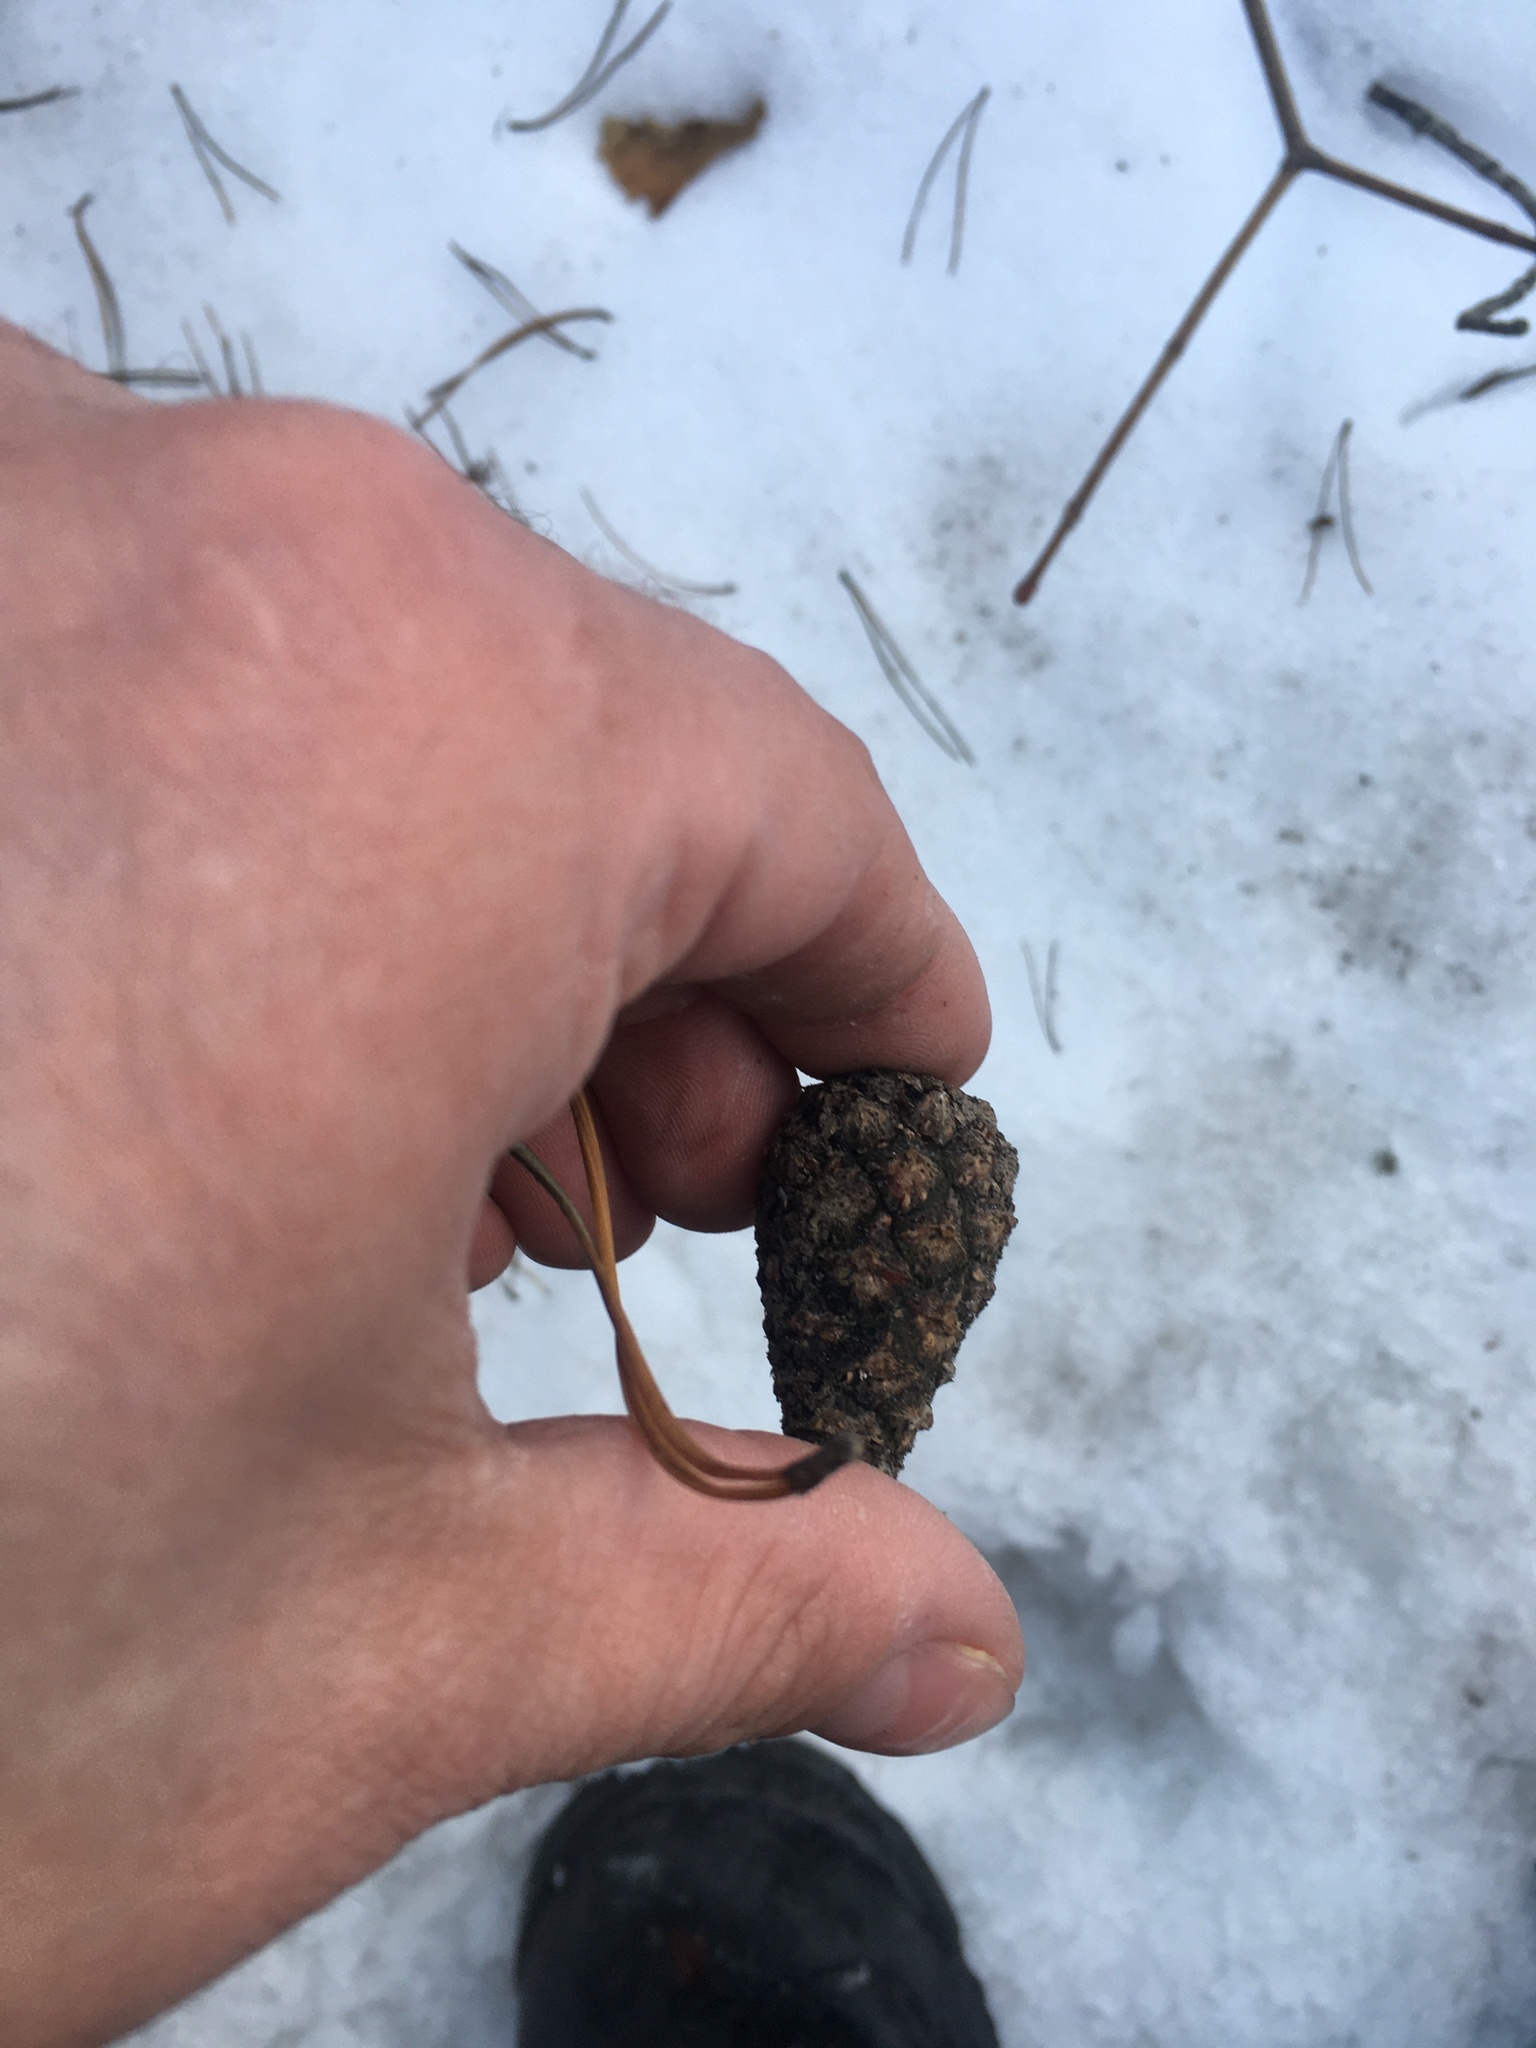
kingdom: Plantae
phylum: Tracheophyta
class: Pinopsida
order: Pinales
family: Pinaceae
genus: Pinus
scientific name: Pinus sylvestris
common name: Scots pine
